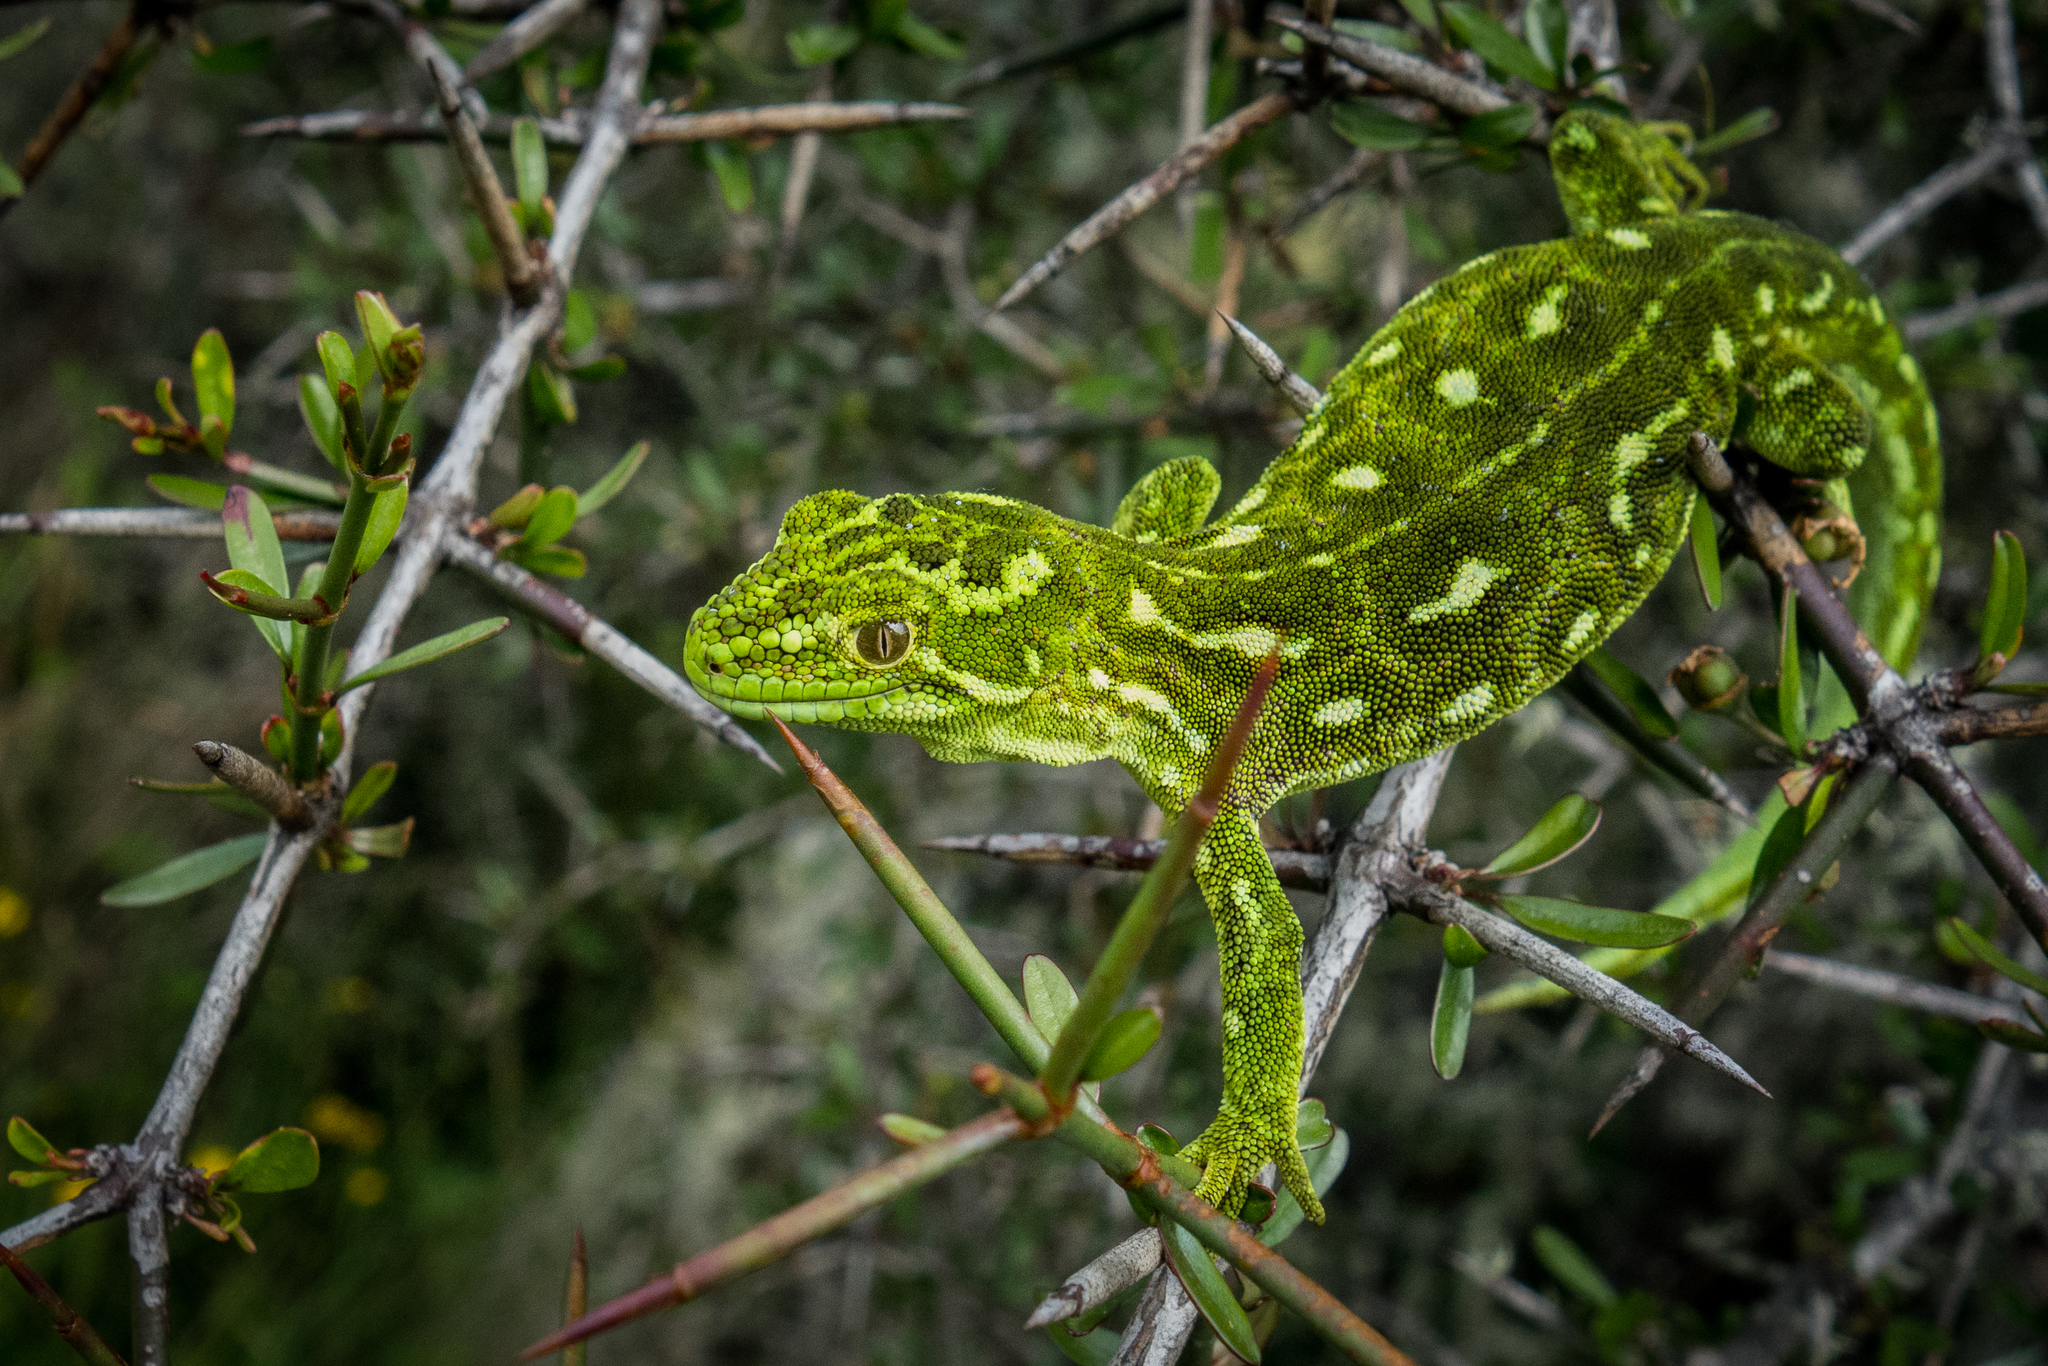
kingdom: Animalia
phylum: Chordata
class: Squamata
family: Diplodactylidae
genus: Naultinus
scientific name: Naultinus tuberculatus
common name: West coast green gecko
